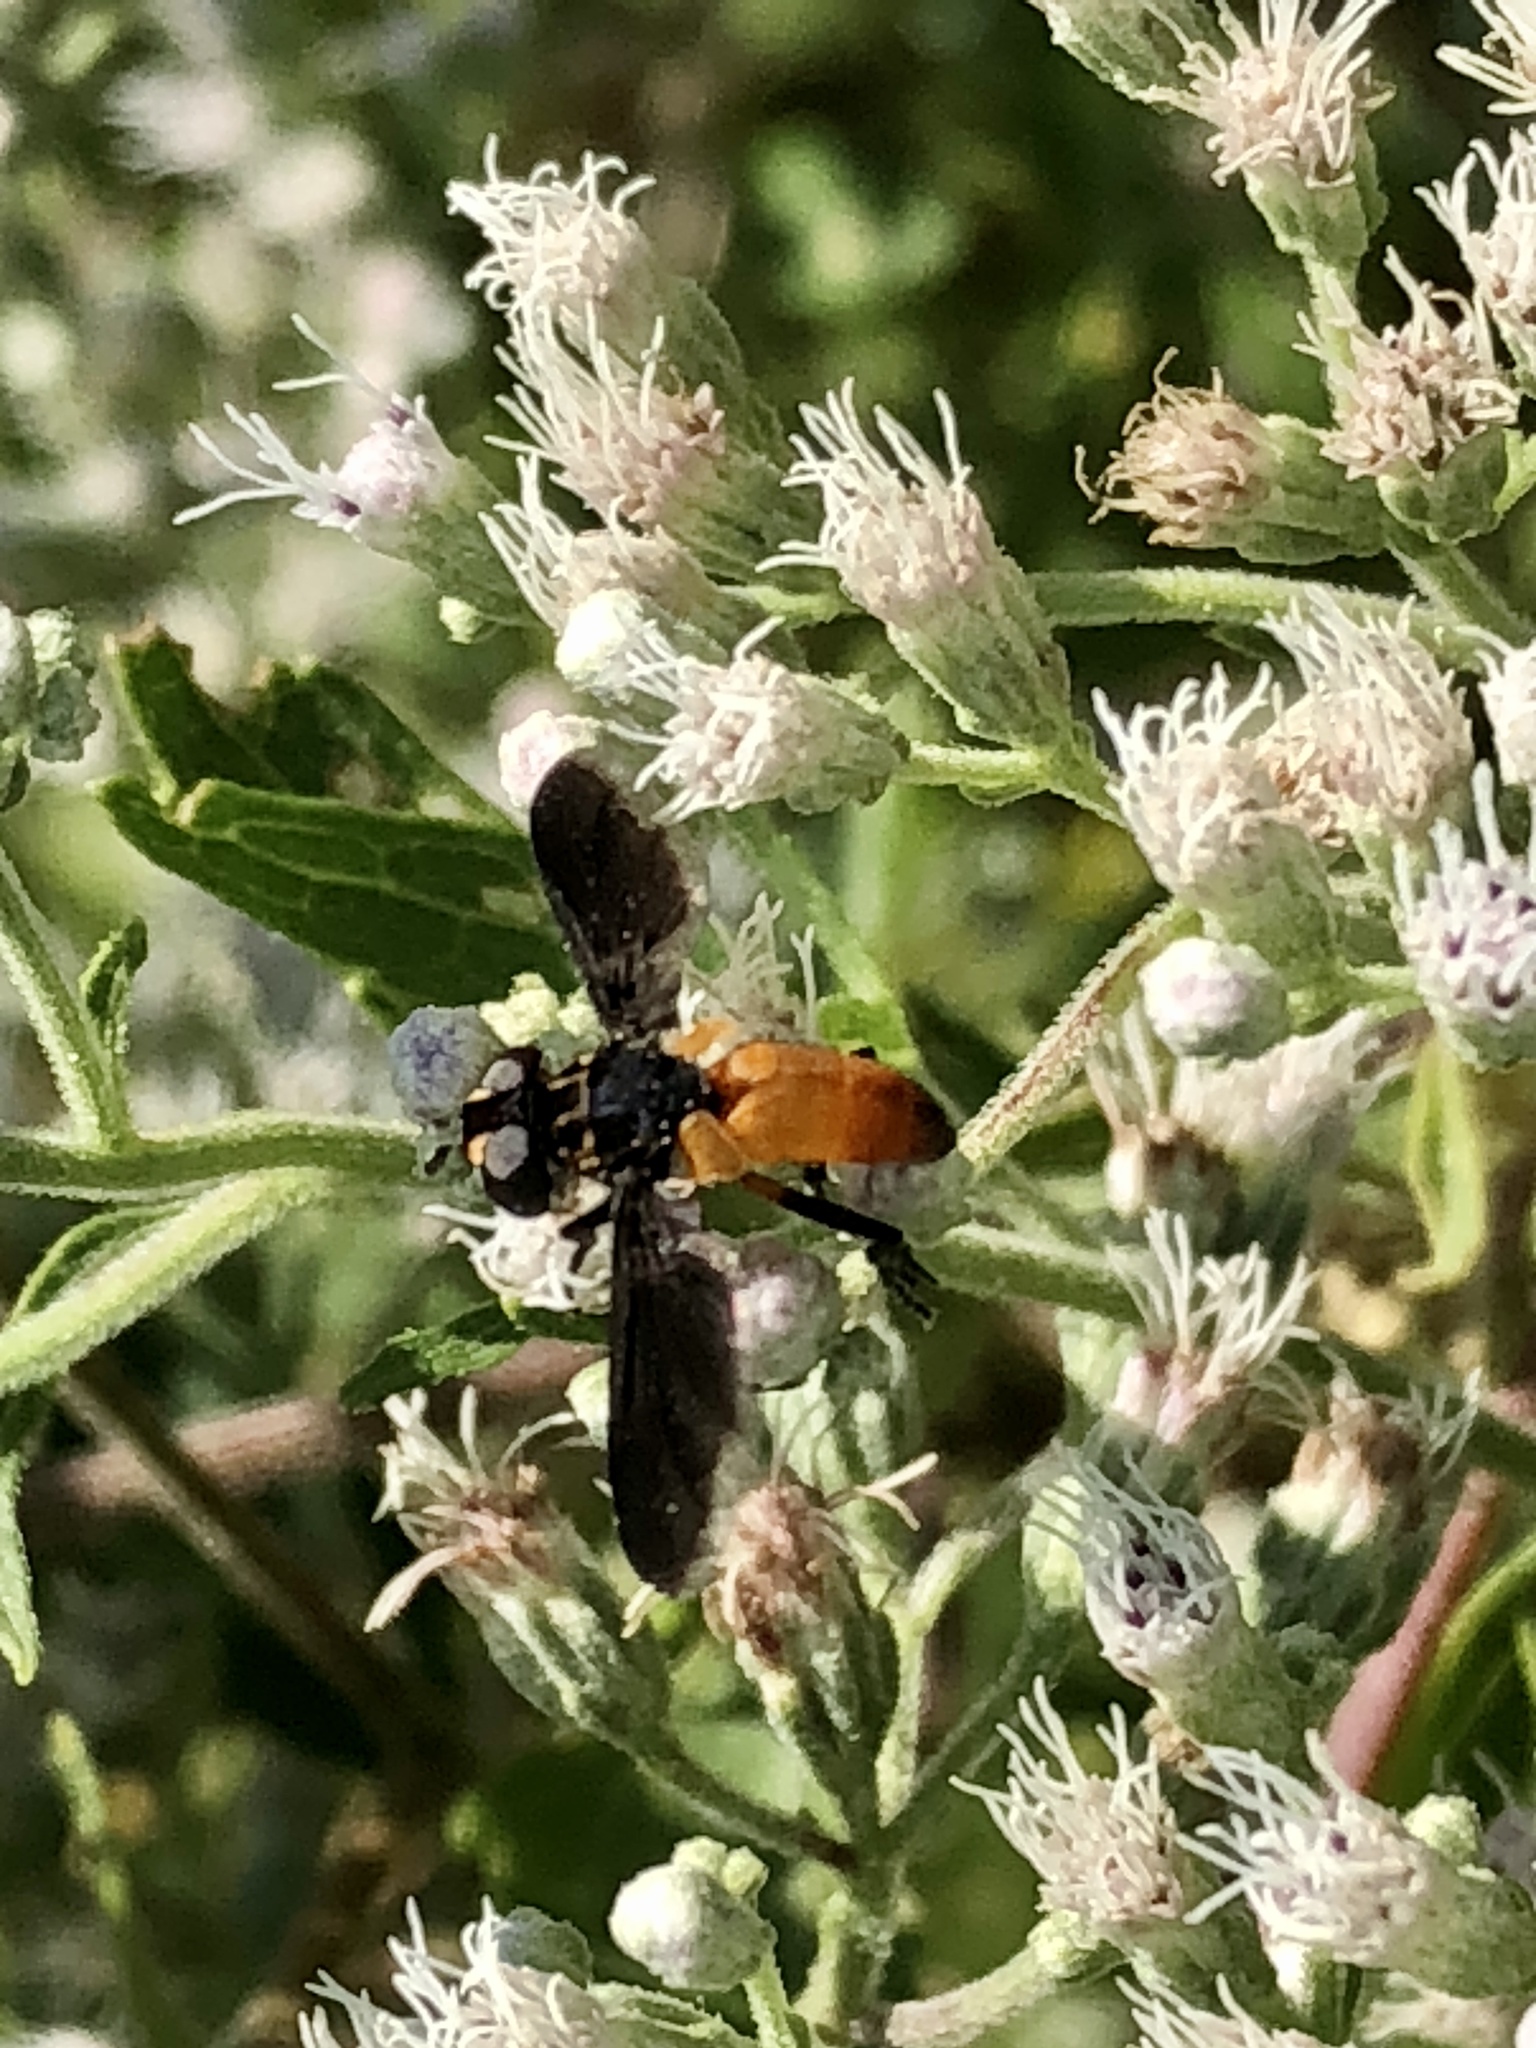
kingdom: Animalia
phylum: Arthropoda
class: Insecta
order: Diptera
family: Tachinidae
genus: Trichopoda
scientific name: Trichopoda pennipes
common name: Tachinid fly
